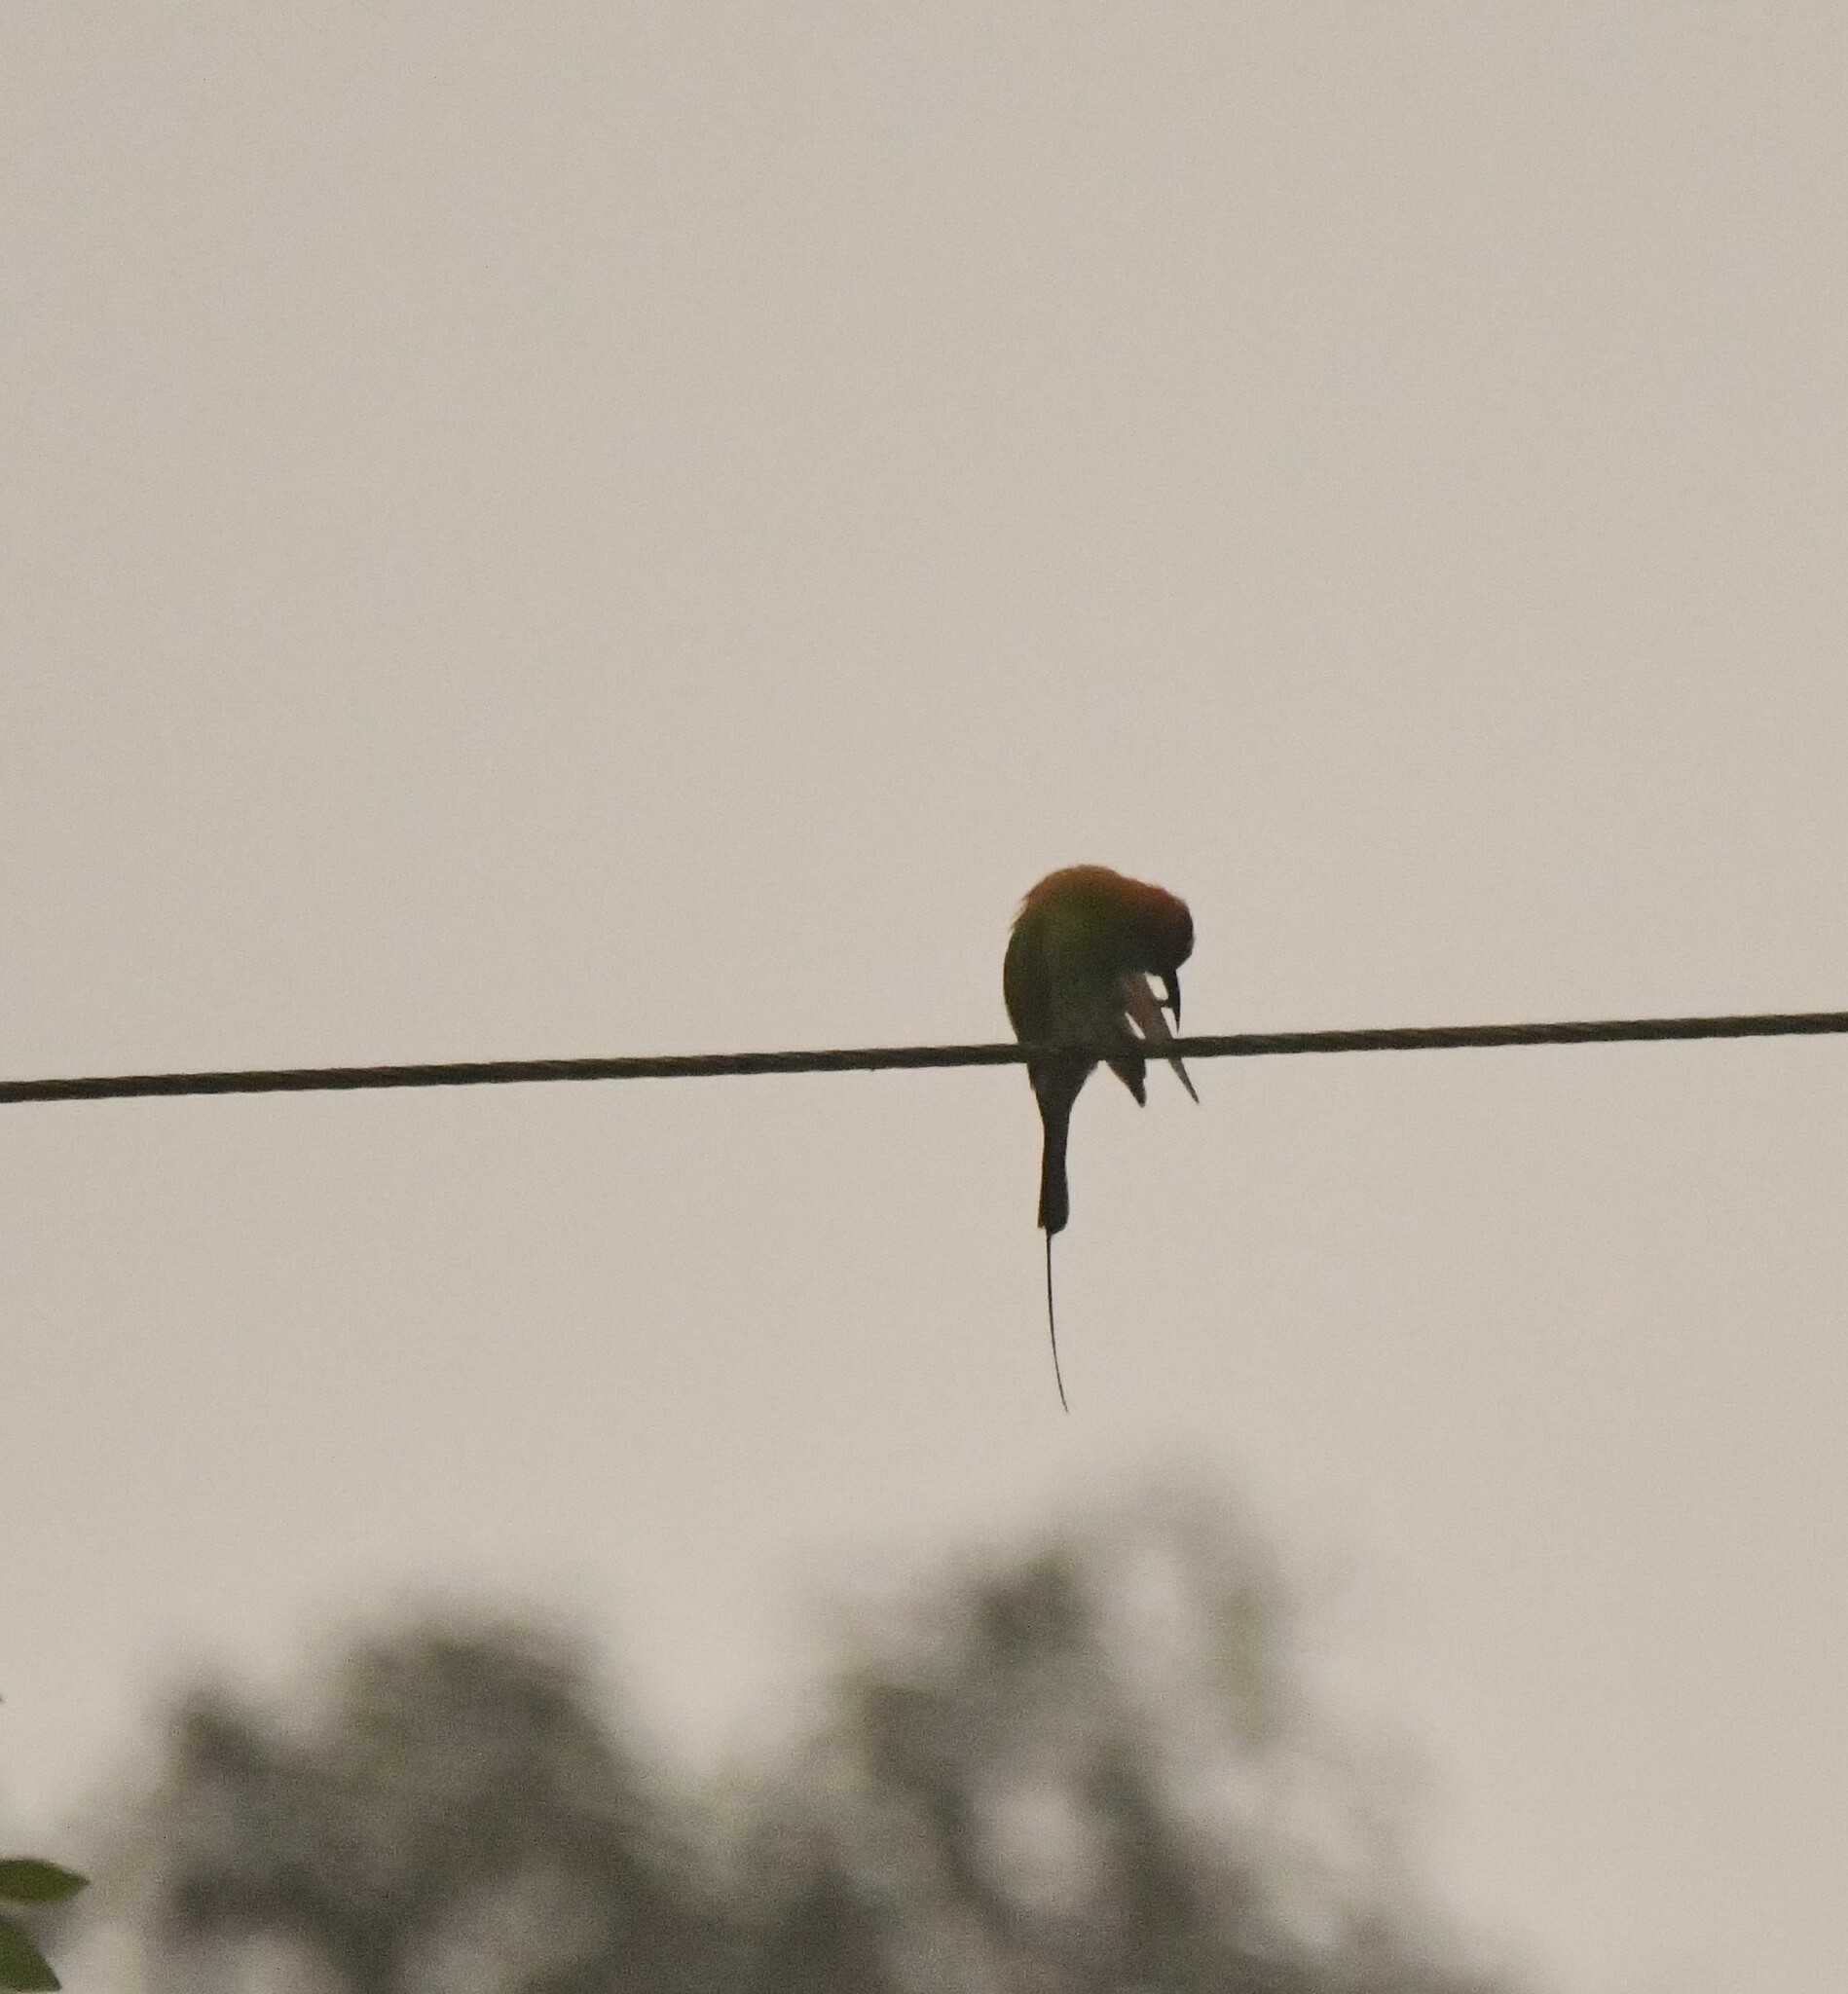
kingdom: Animalia
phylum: Chordata
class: Aves
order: Coraciiformes
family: Meropidae
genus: Merops
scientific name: Merops orientalis
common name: Green bee-eater
